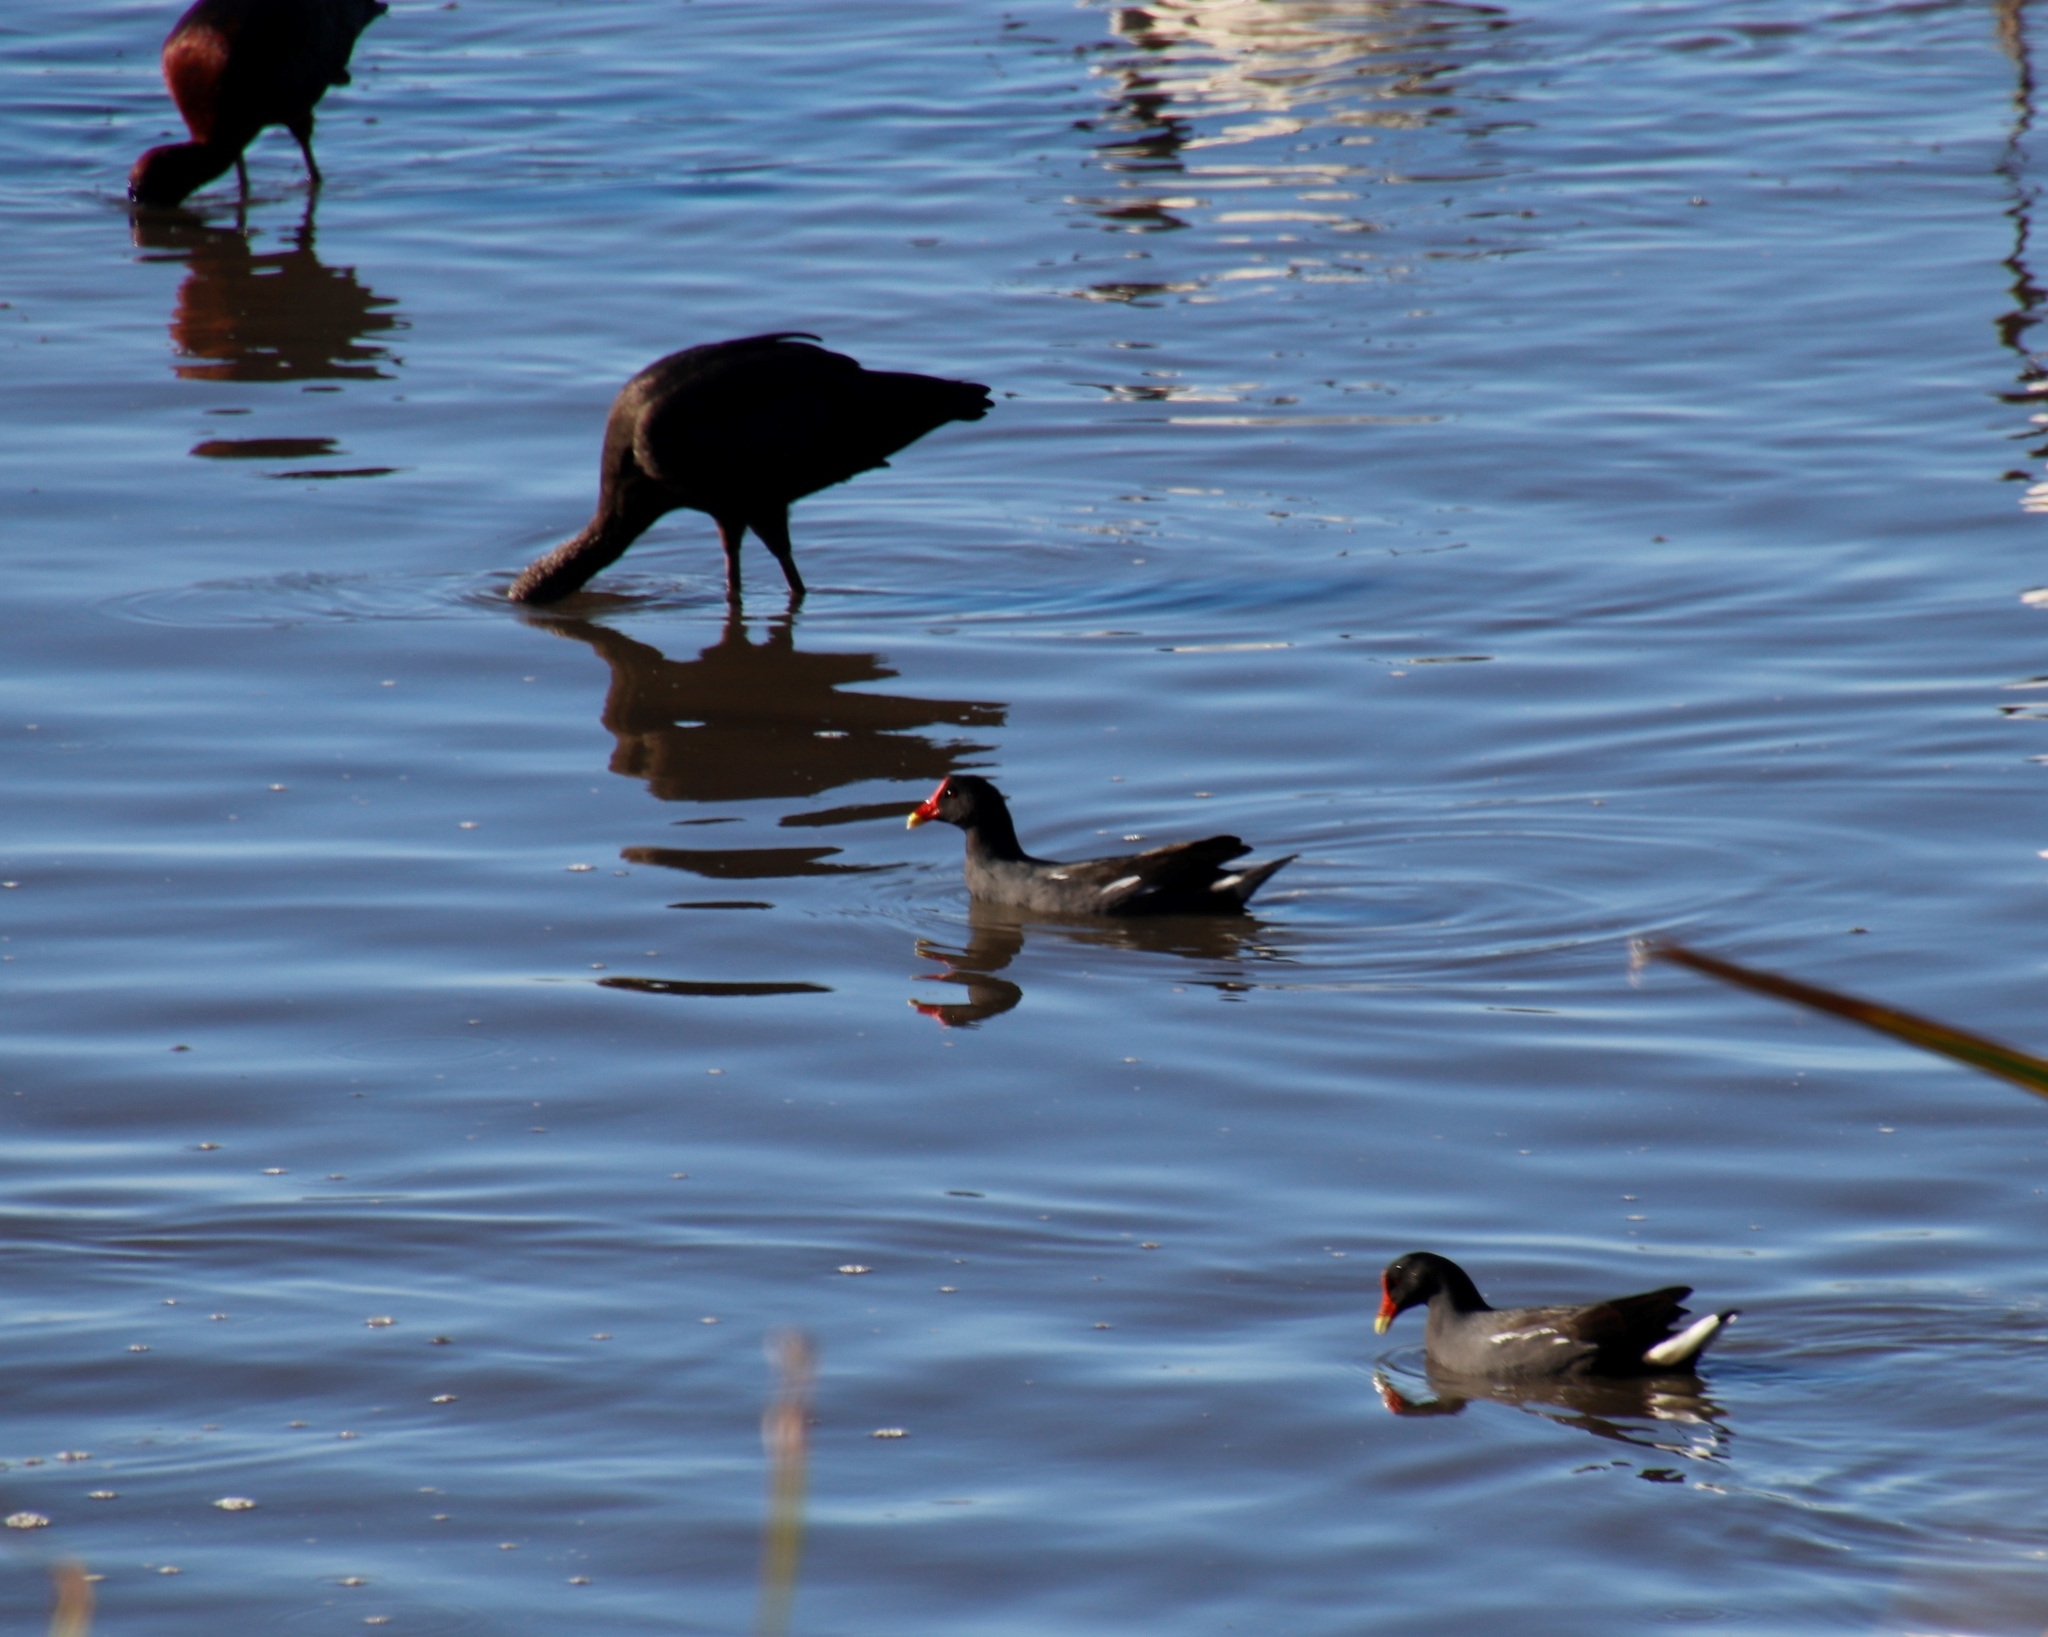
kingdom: Animalia
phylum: Chordata
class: Aves
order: Gruiformes
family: Rallidae
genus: Gallinula
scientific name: Gallinula chloropus
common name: Common moorhen
